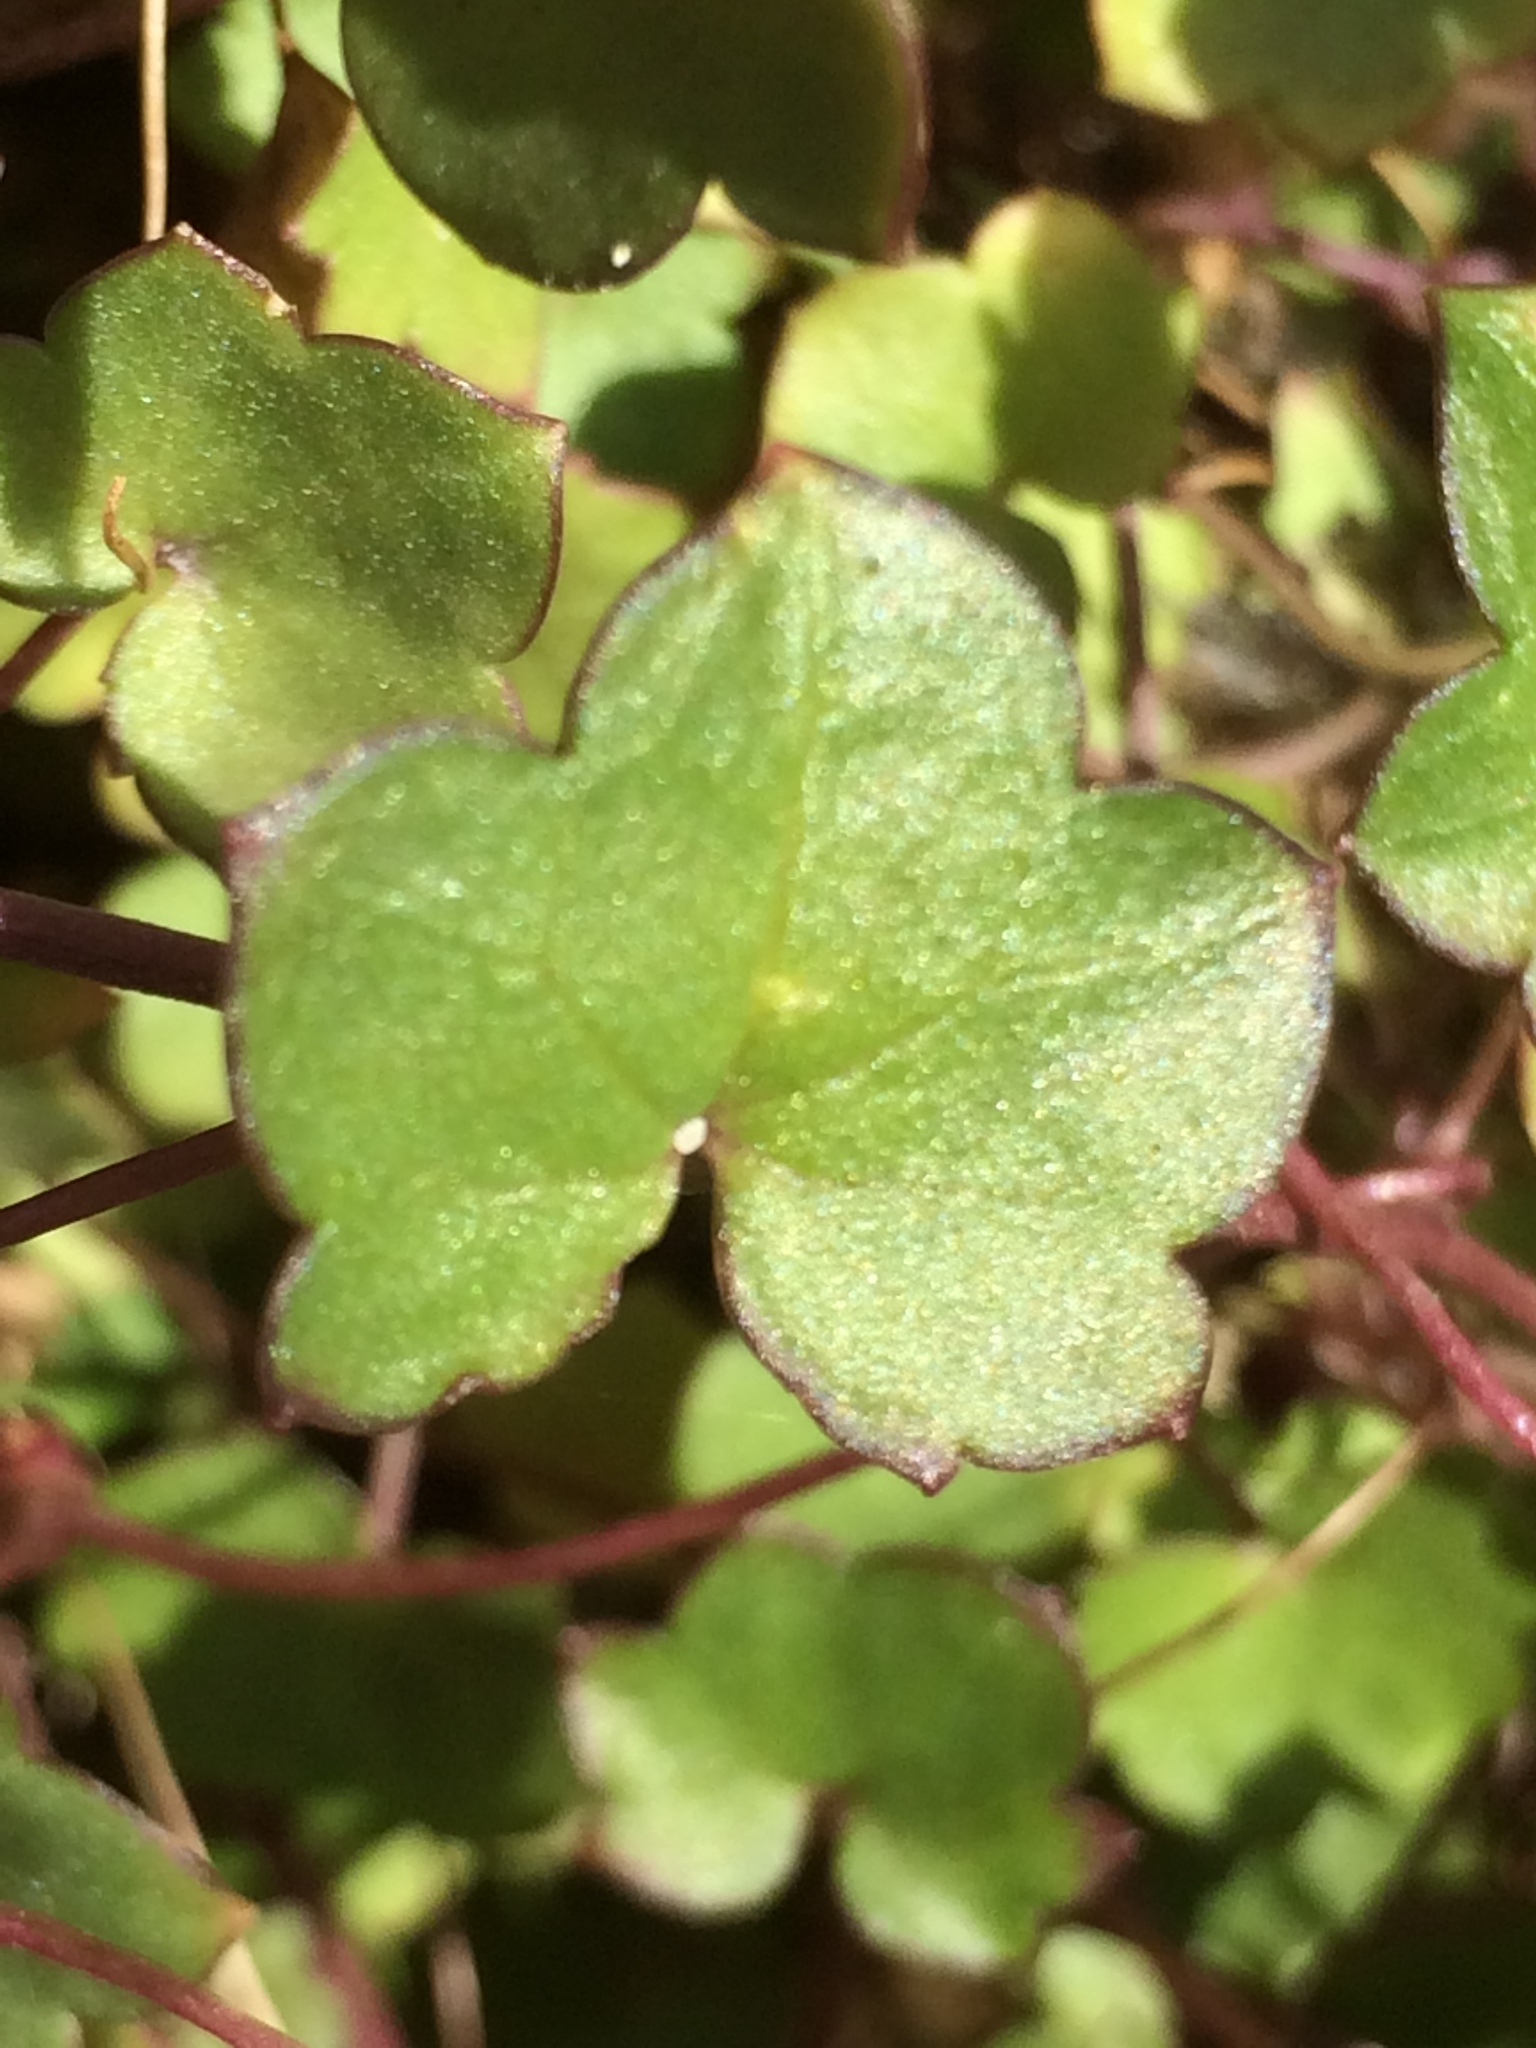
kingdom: Plantae
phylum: Tracheophyta
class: Magnoliopsida
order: Lamiales
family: Plantaginaceae
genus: Cymbalaria
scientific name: Cymbalaria muralis
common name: Ivy-leaved toadflax
